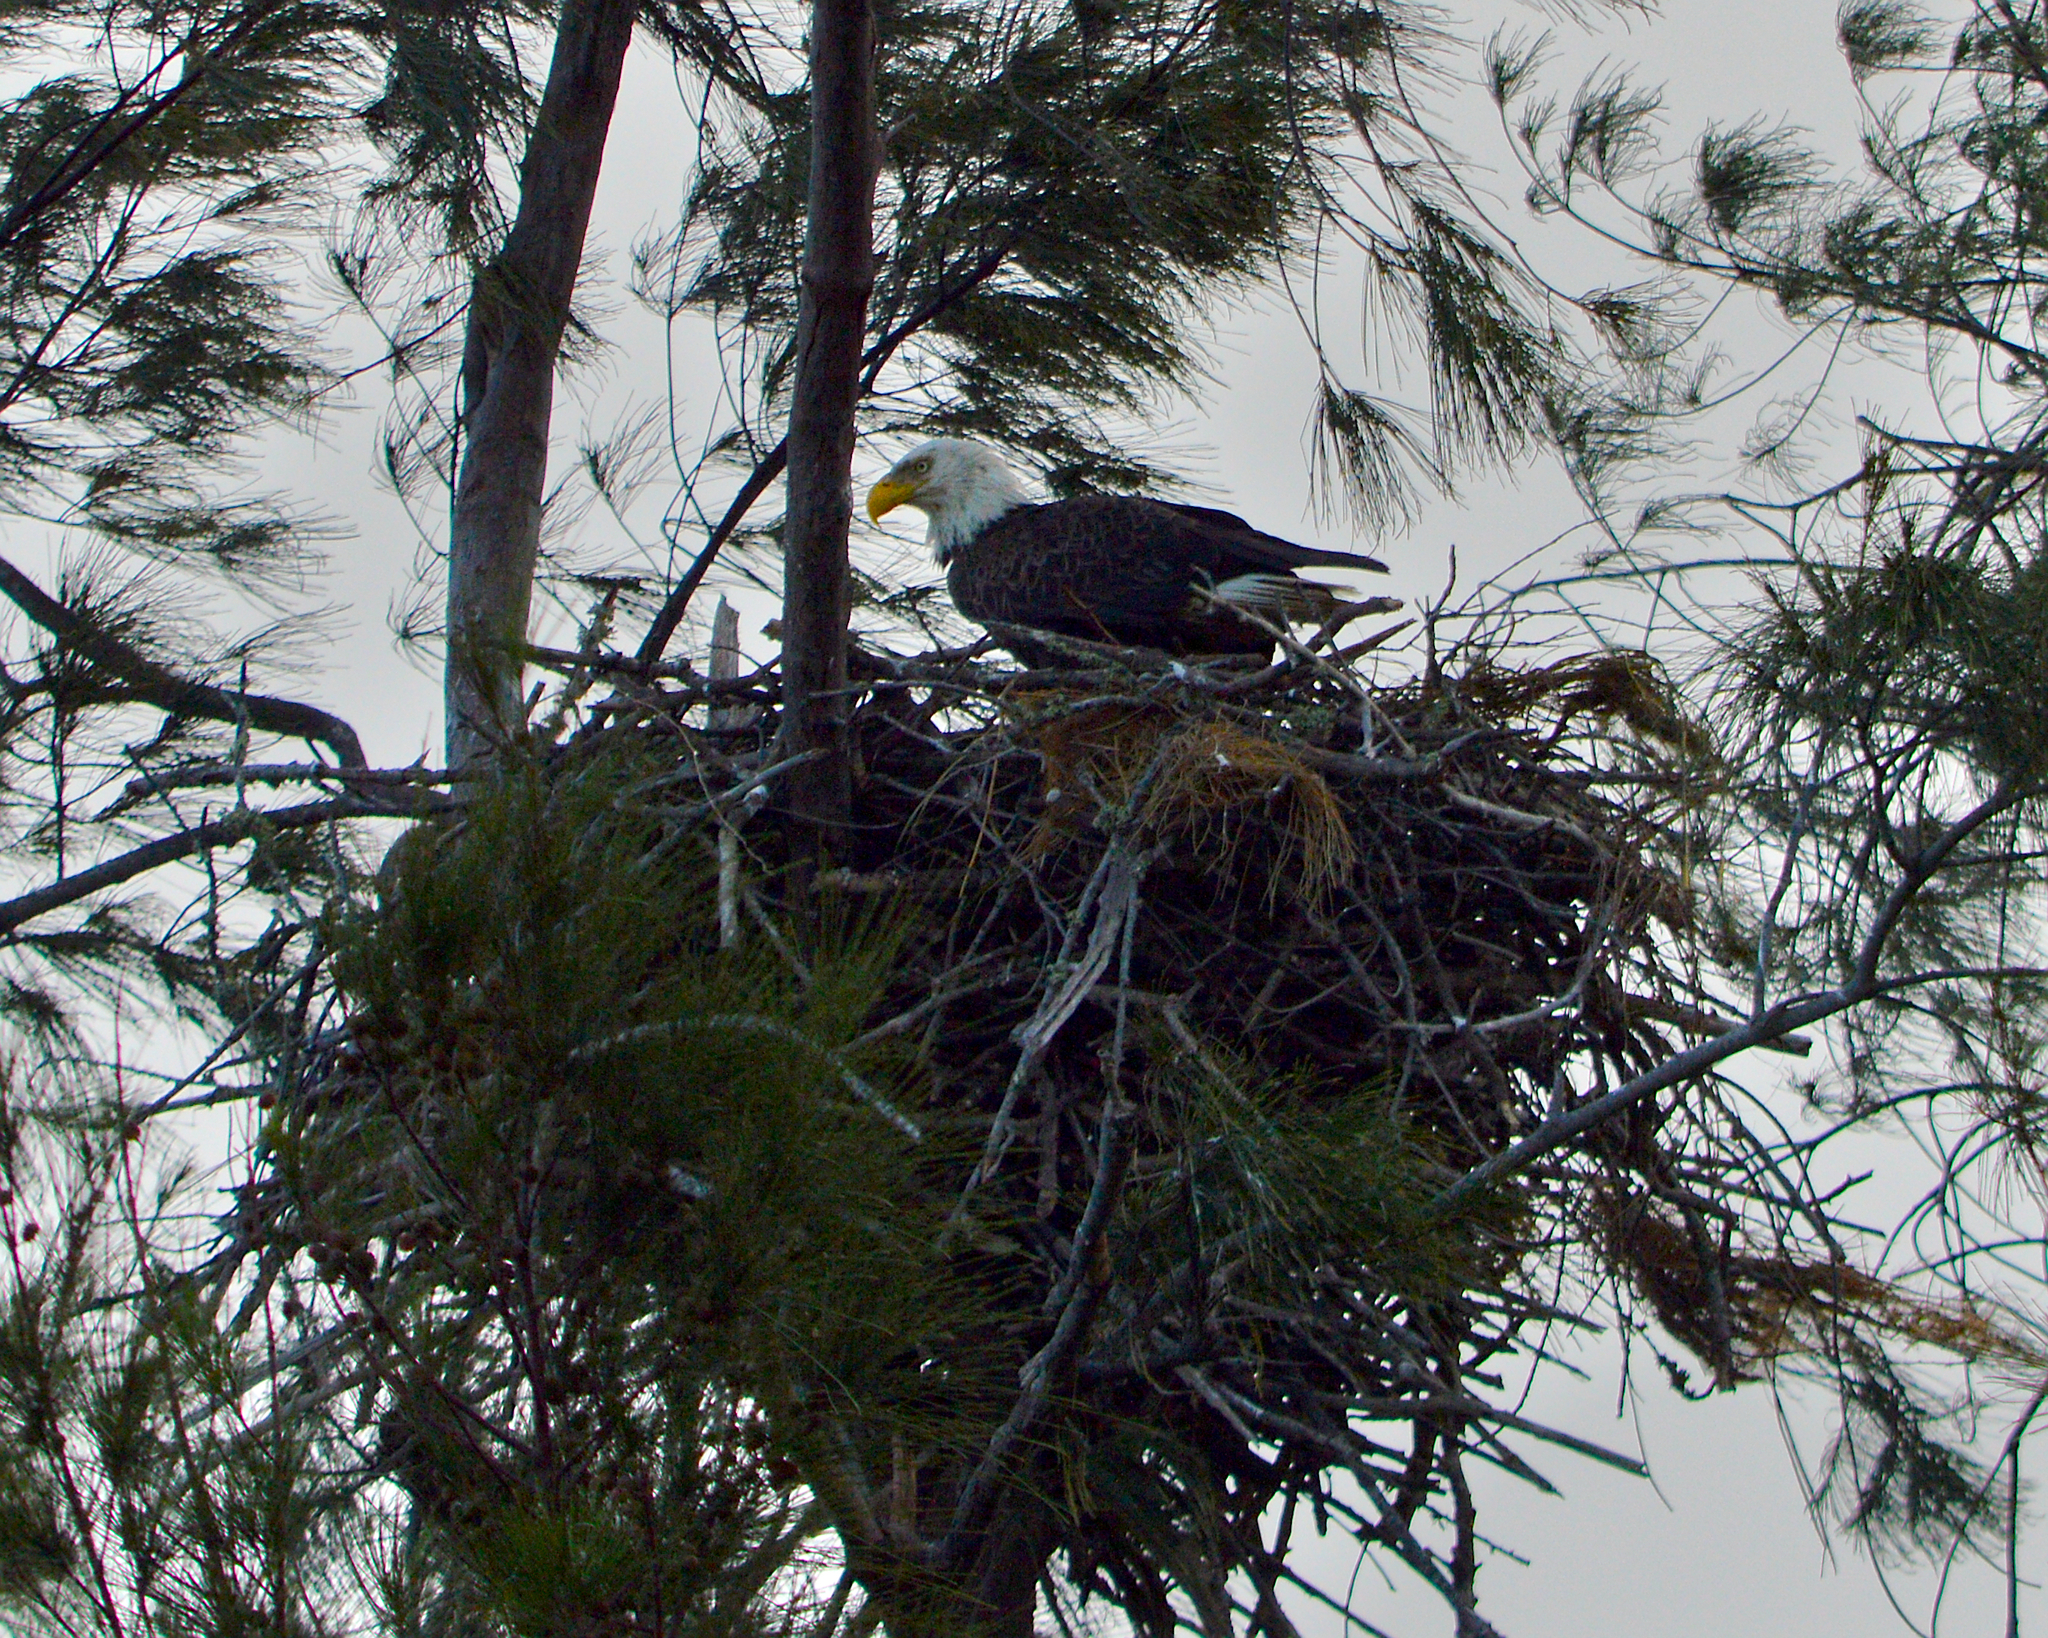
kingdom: Animalia
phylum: Chordata
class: Aves
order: Accipitriformes
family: Accipitridae
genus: Haliaeetus
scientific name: Haliaeetus leucocephalus
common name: Bald eagle
